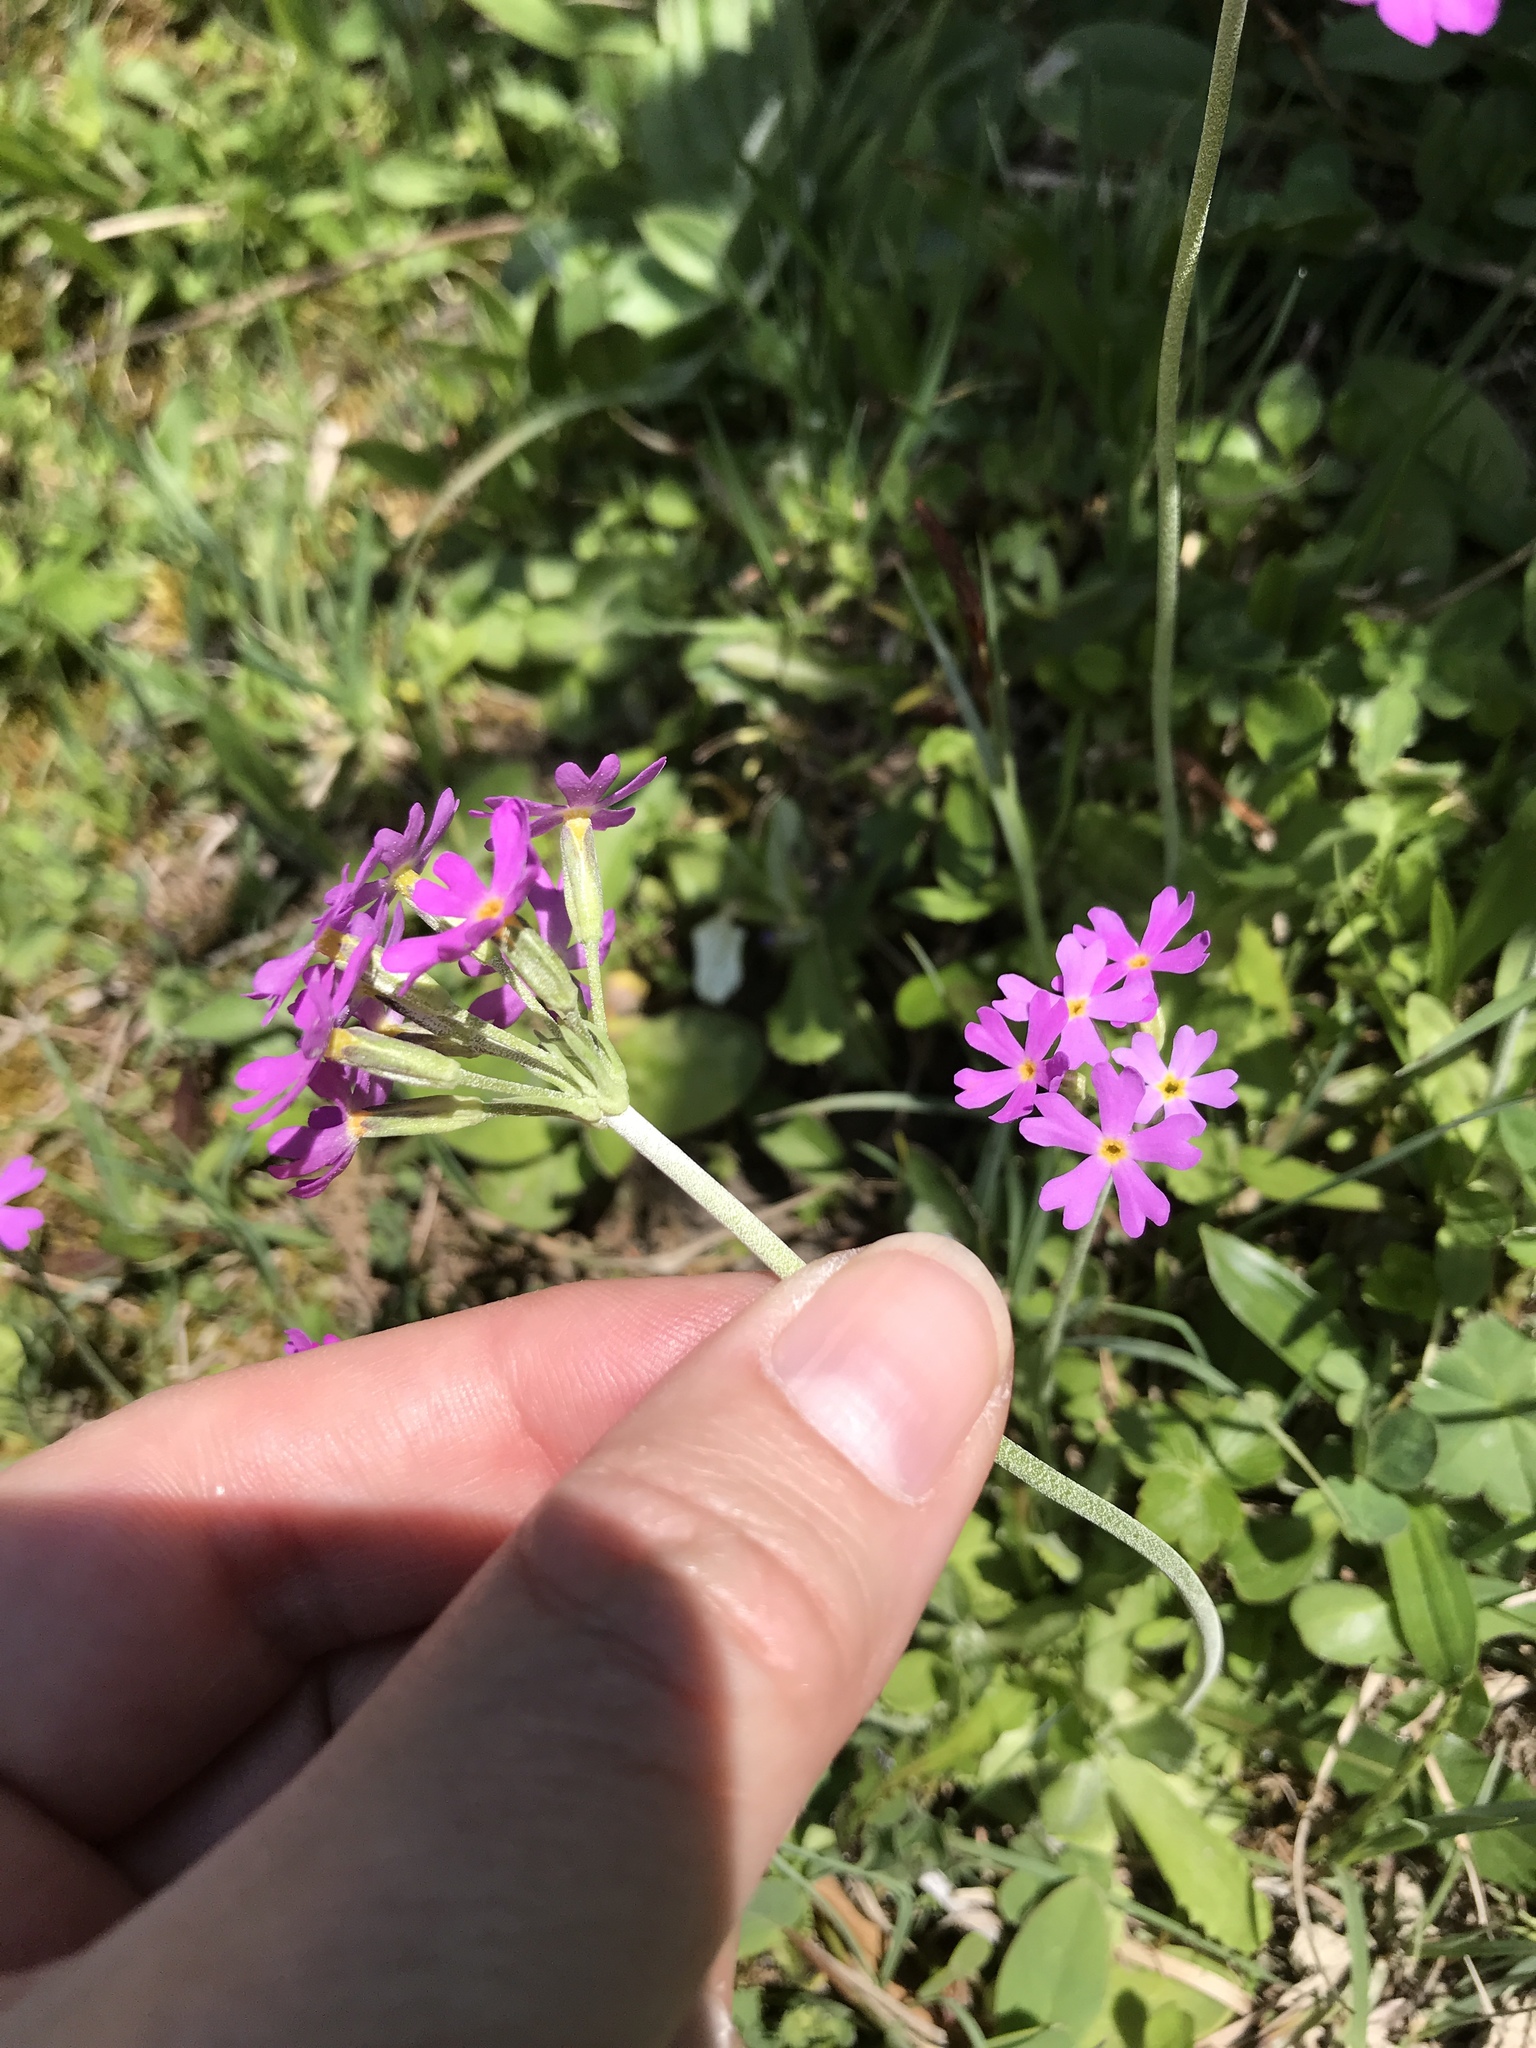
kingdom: Plantae
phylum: Tracheophyta
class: Magnoliopsida
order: Ericales
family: Primulaceae
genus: Primula
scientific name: Primula farinosa
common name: Bird's-eye primrose
